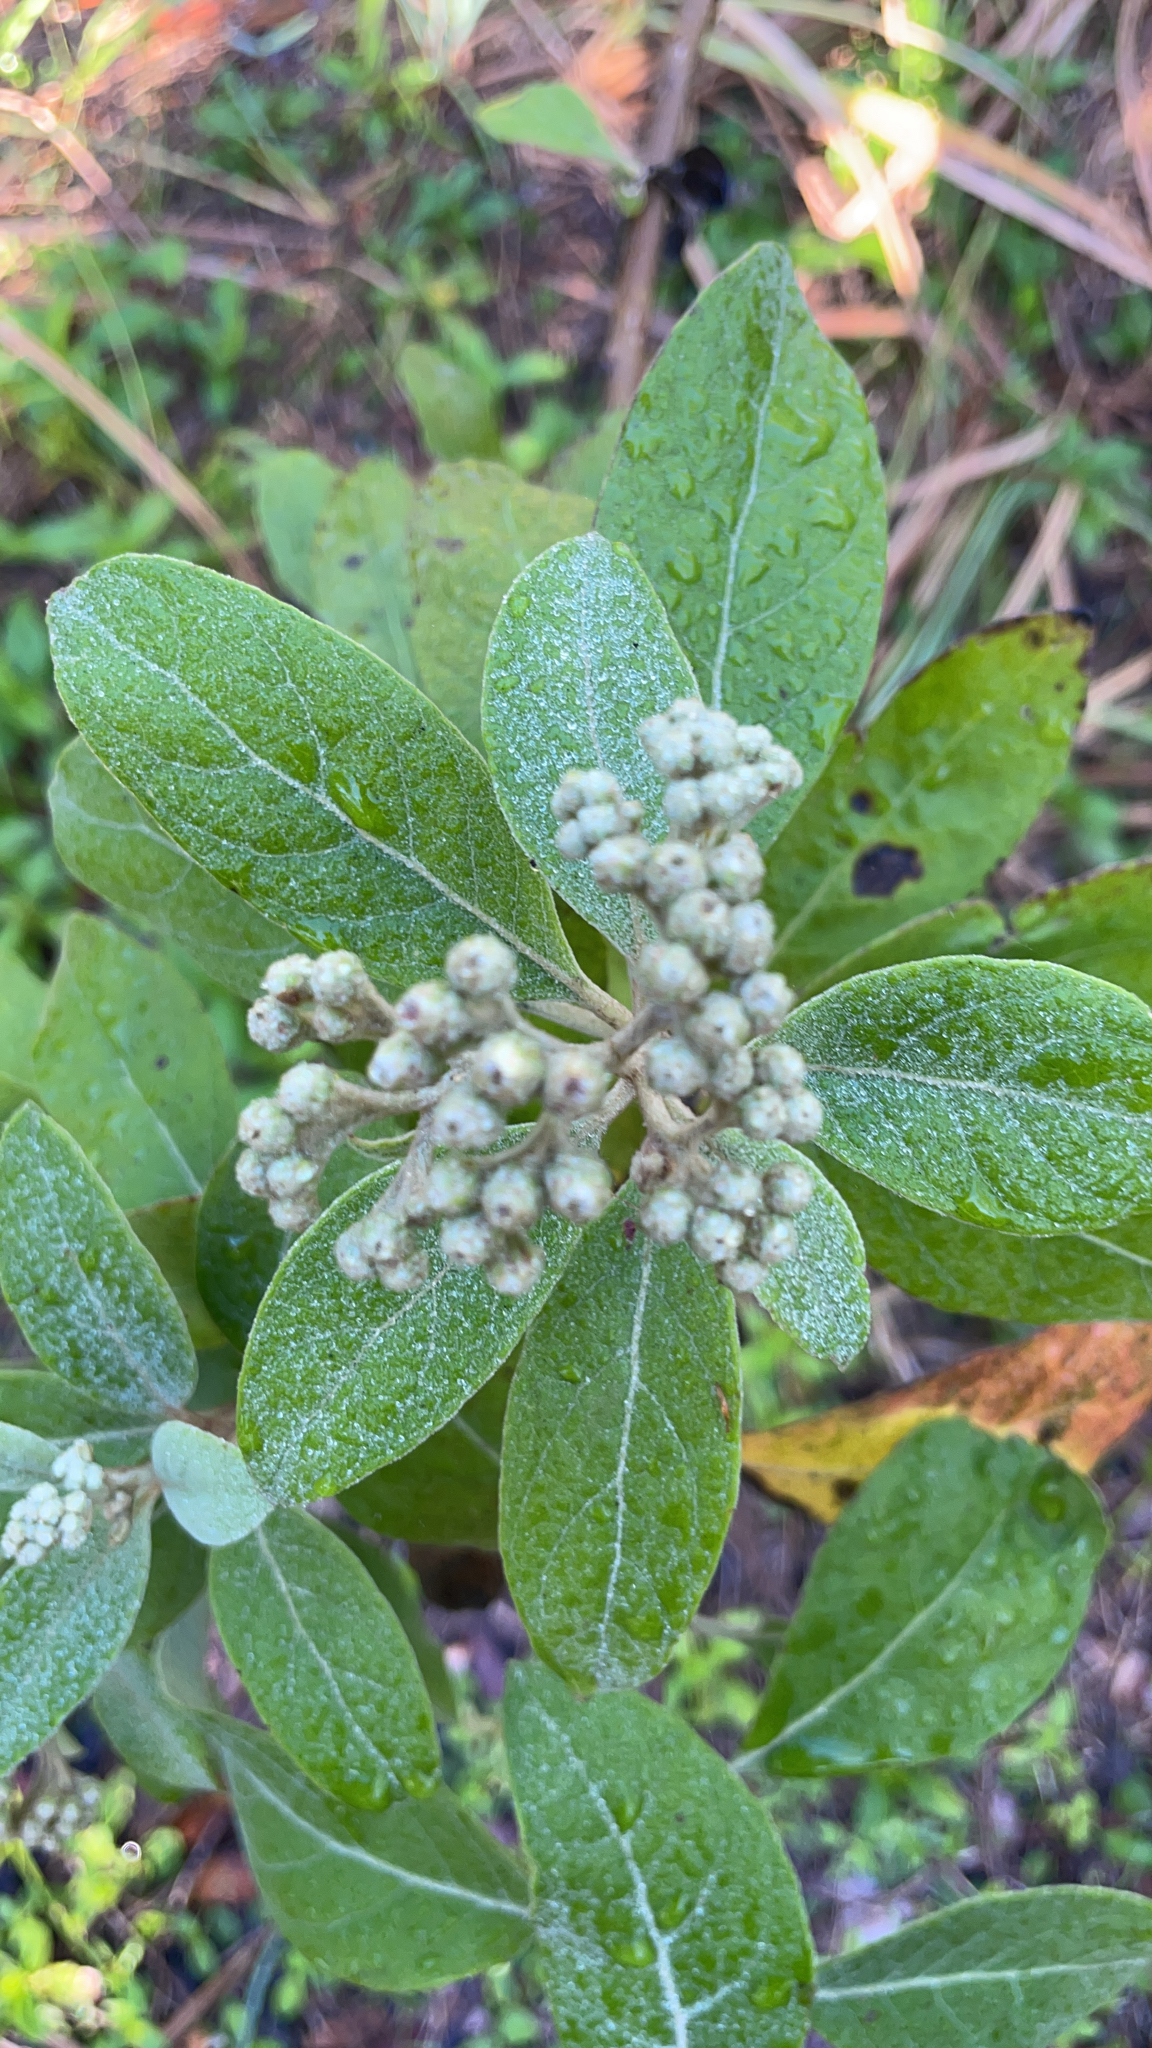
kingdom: Plantae
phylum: Tracheophyta
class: Magnoliopsida
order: Asterales
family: Asteraceae
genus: Pluchea
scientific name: Pluchea carolinensis
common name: Marsh fleabane
